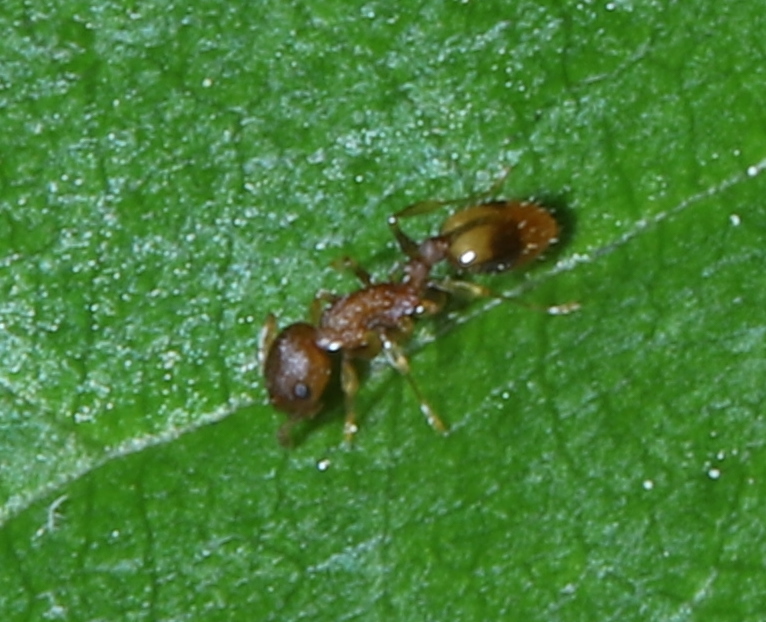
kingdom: Animalia
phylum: Arthropoda
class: Insecta
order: Hymenoptera
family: Formicidae
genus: Temnothorax
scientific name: Temnothorax curvispinosus
